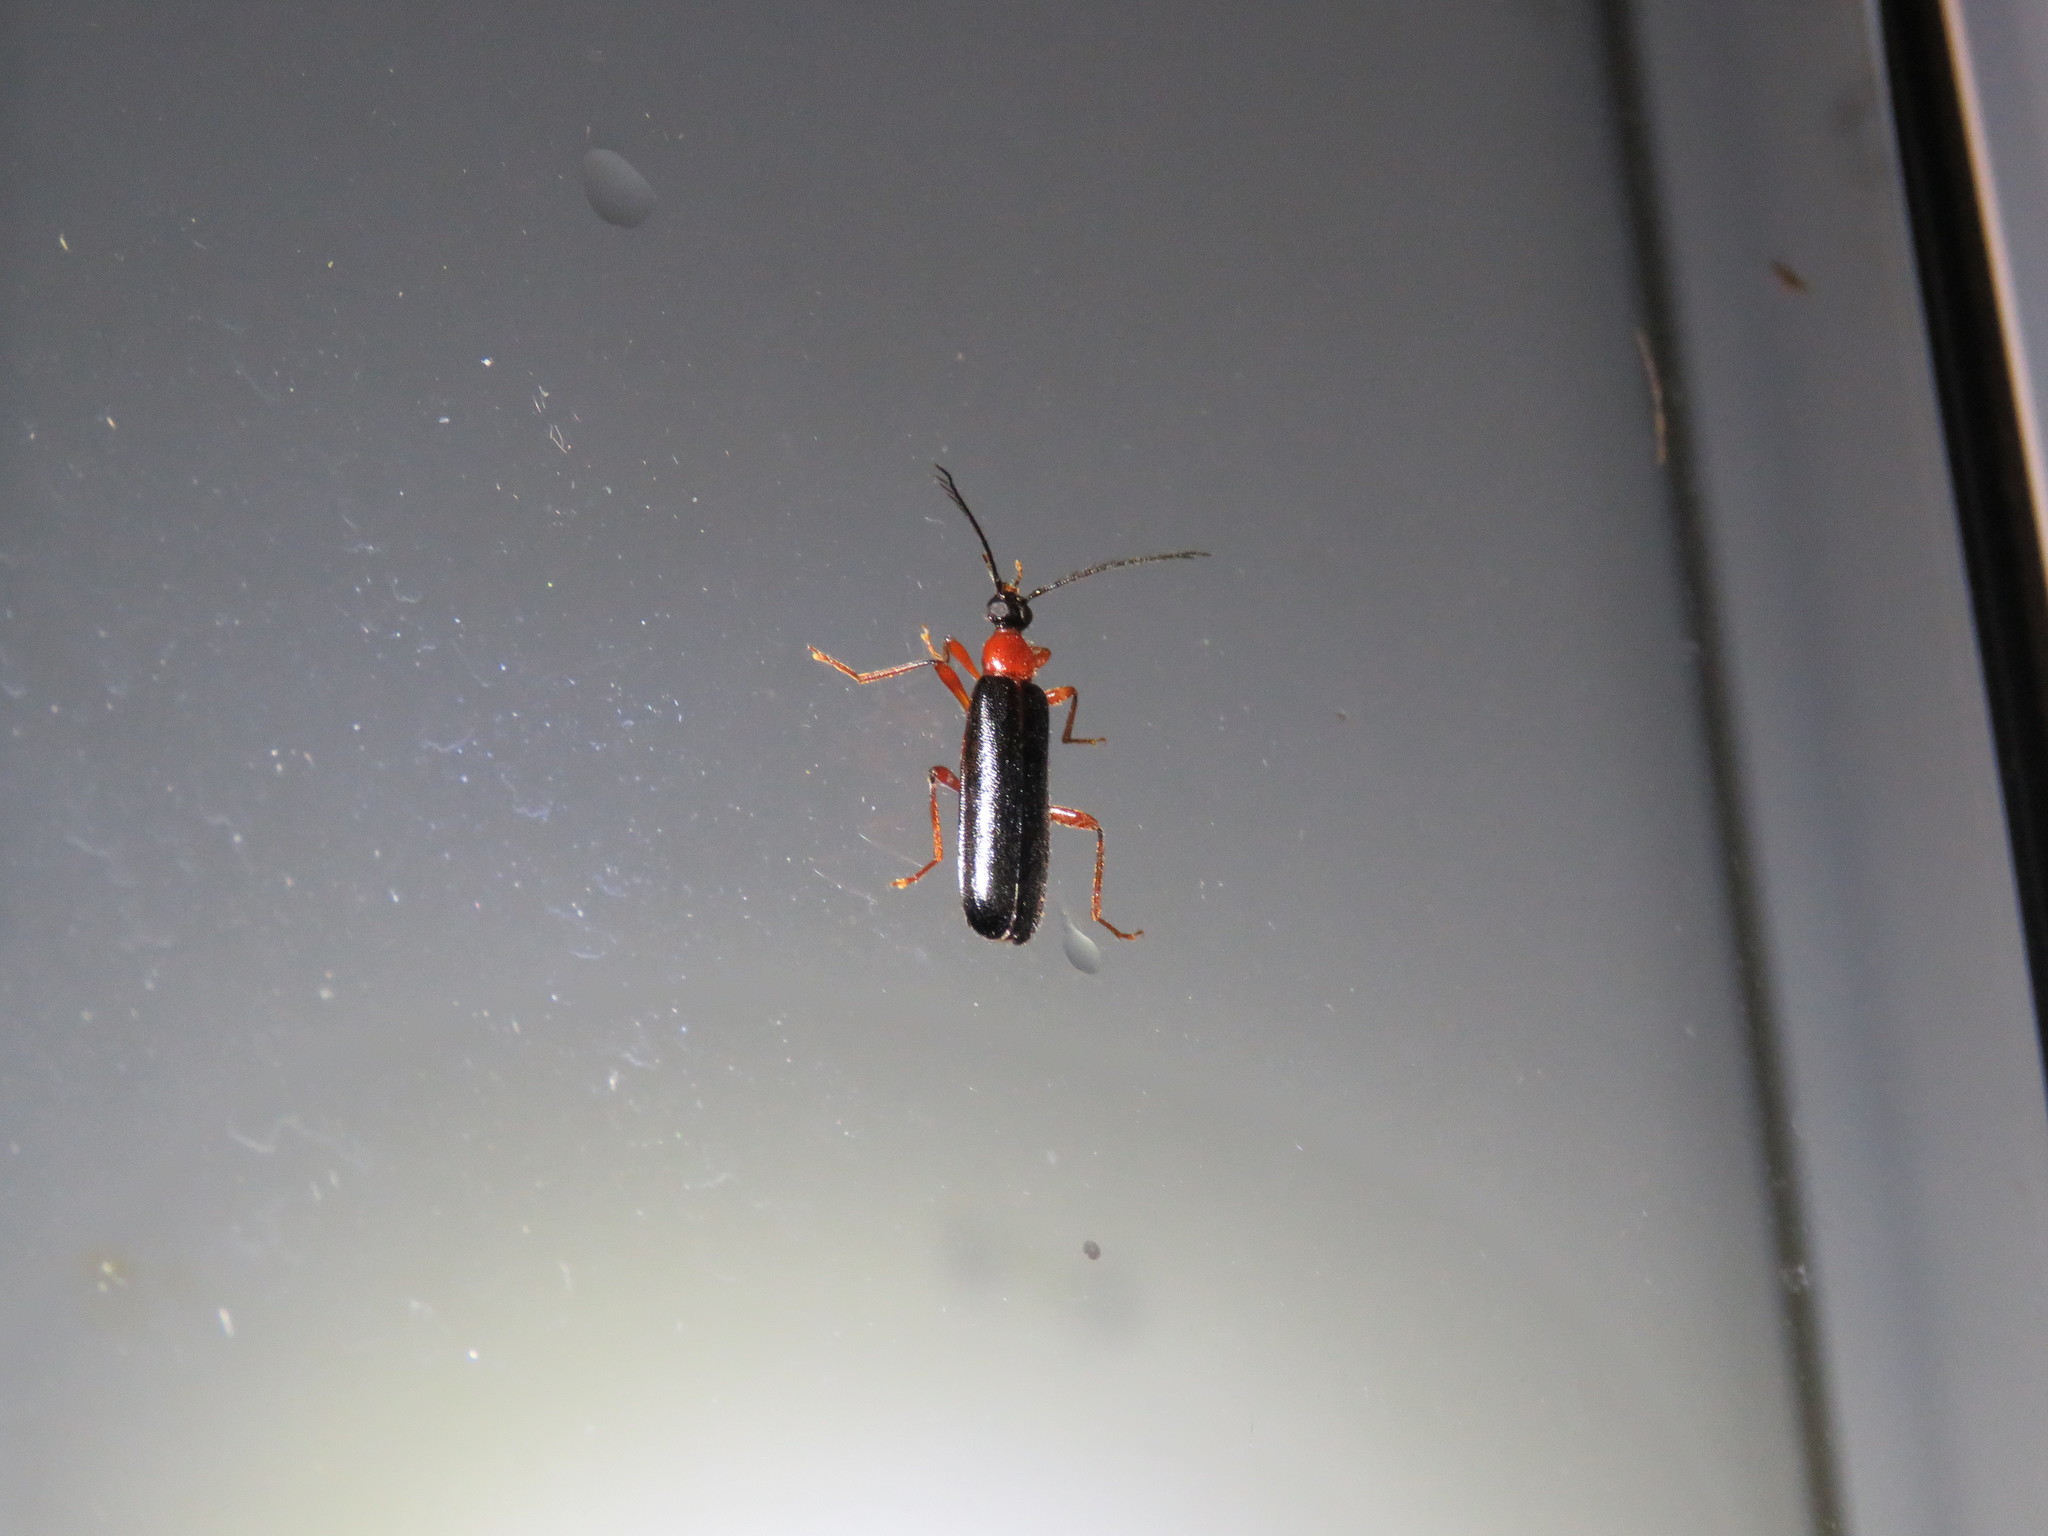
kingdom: Animalia
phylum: Arthropoda
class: Insecta
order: Coleoptera
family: Pyrochroidae
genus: Dendroides
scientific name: Dendroides canadensis
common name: Canada fire-colored beetle
